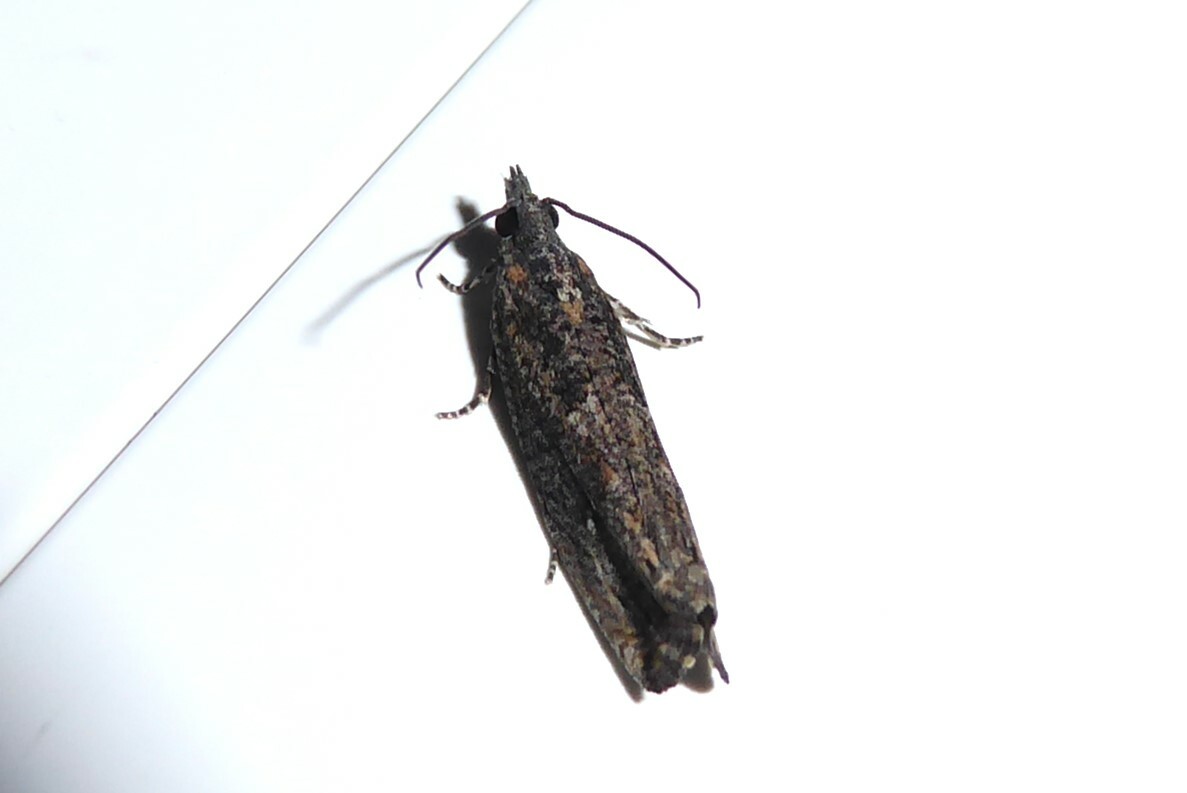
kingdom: Animalia
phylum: Arthropoda
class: Insecta
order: Lepidoptera
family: Tortricidae
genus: Strepsicrates
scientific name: Strepsicrates ejectana
